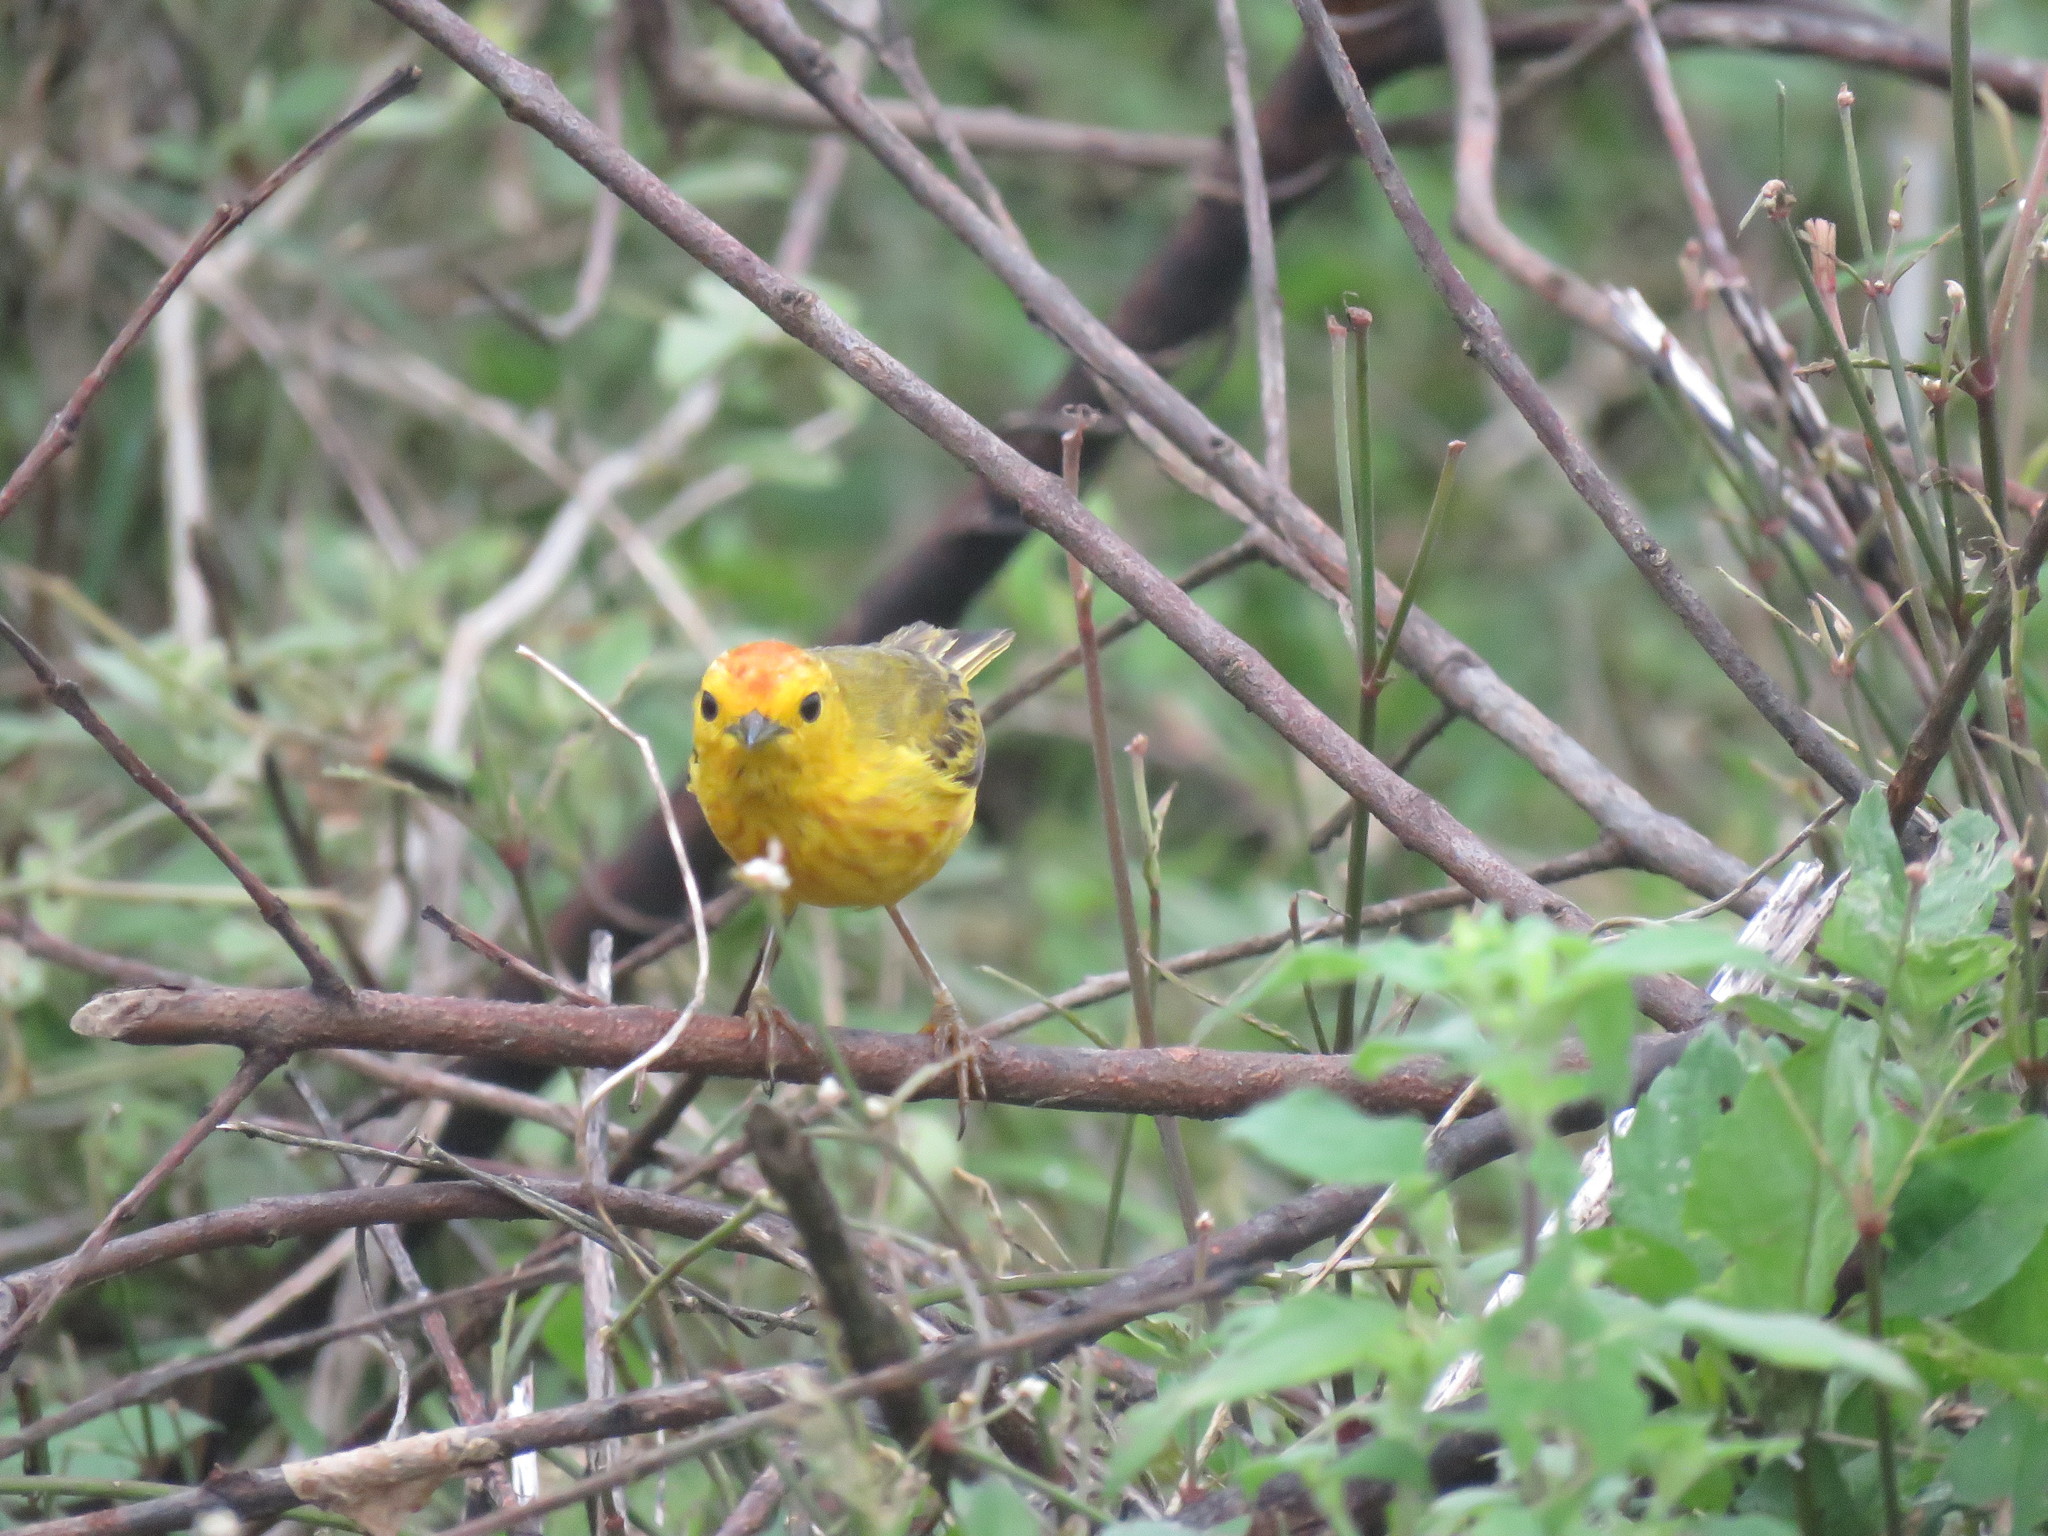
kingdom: Animalia
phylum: Chordata
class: Aves
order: Passeriformes
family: Parulidae
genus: Setophaga
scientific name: Setophaga petechia
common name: Yellow warbler
